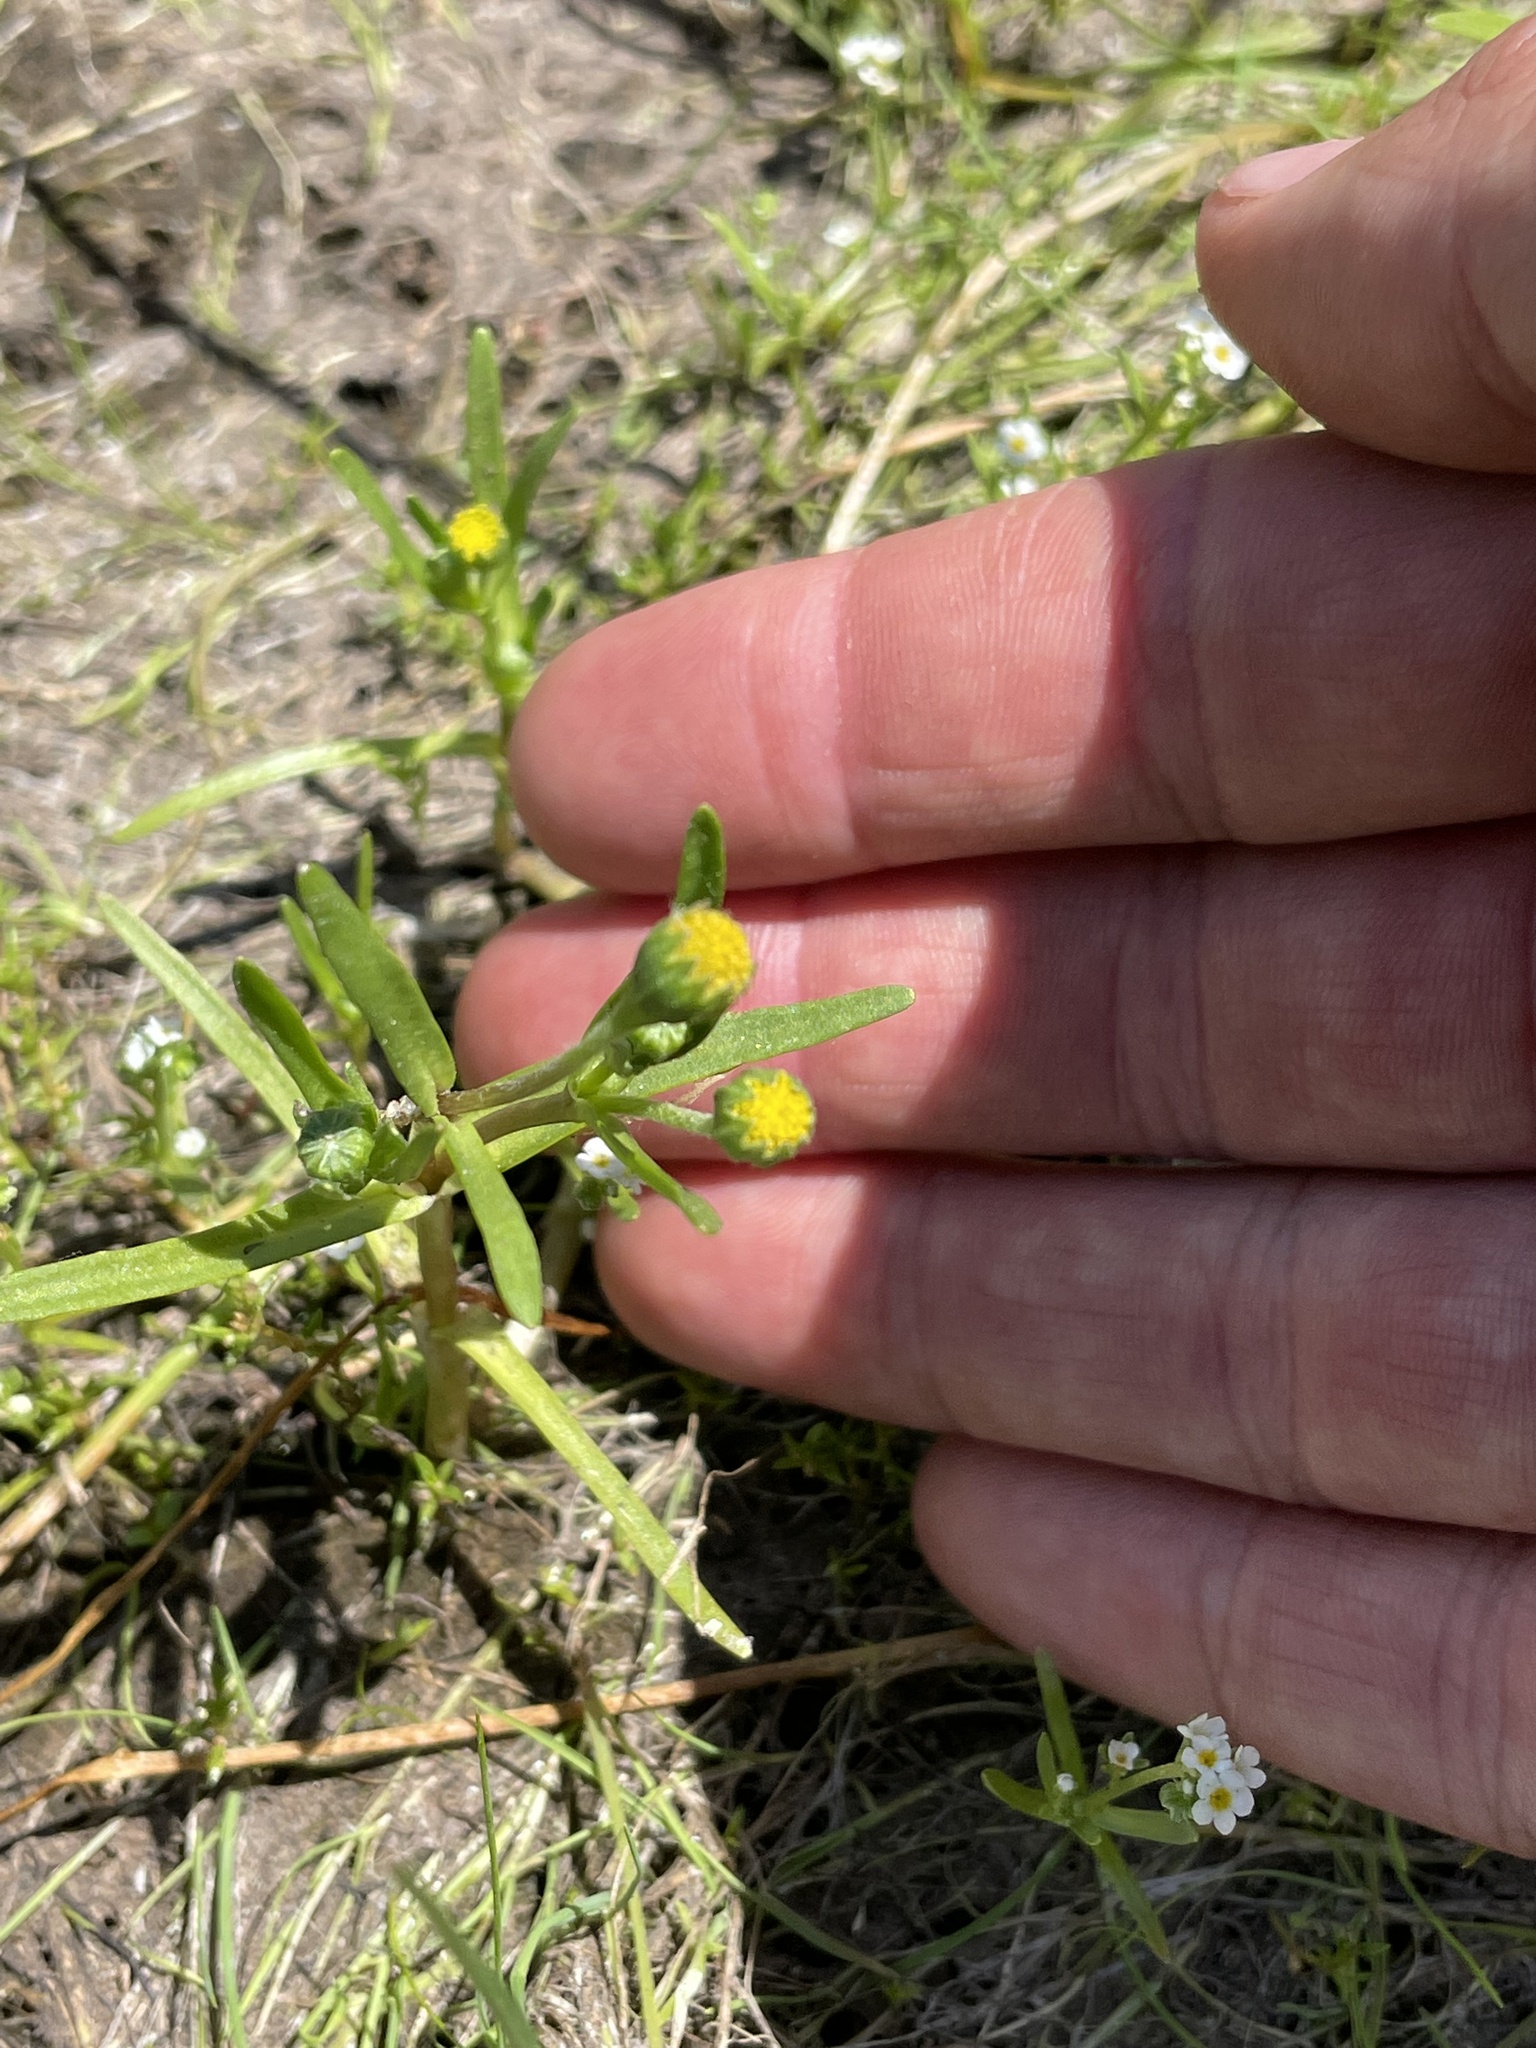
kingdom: Plantae
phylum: Tracheophyta
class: Magnoliopsida
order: Asterales
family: Asteraceae
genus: Lasthenia
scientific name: Lasthenia glaberrima
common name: Smooth goldfields
